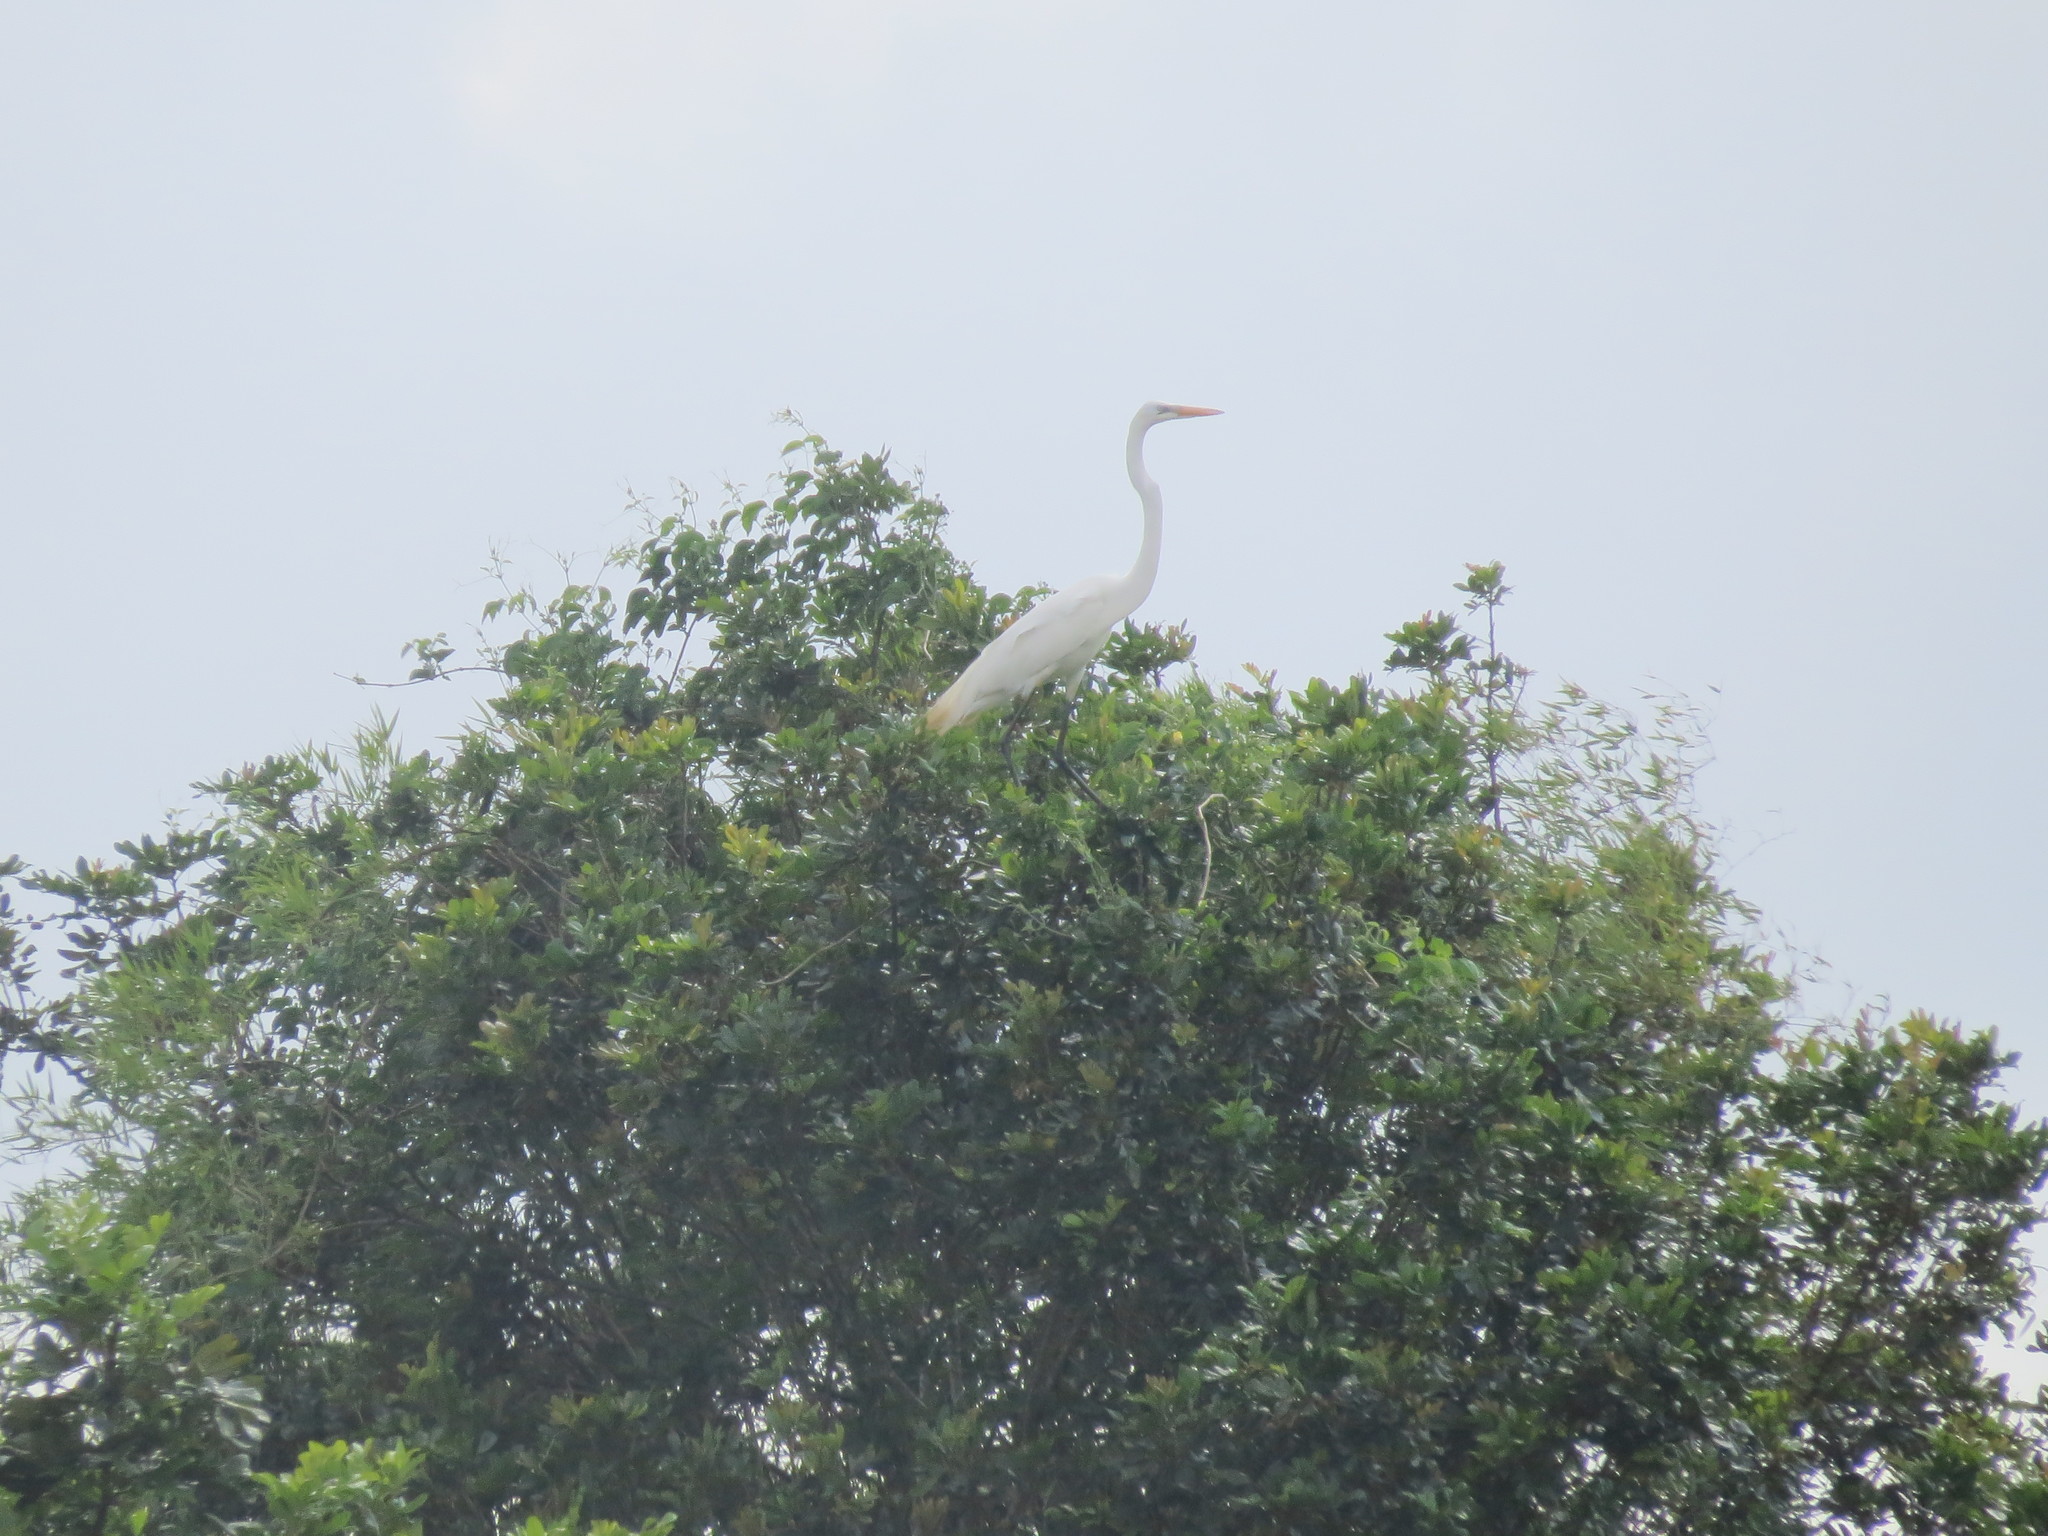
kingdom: Animalia
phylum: Chordata
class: Aves
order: Pelecaniformes
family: Ardeidae
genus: Ardea
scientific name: Ardea alba
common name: Great egret
